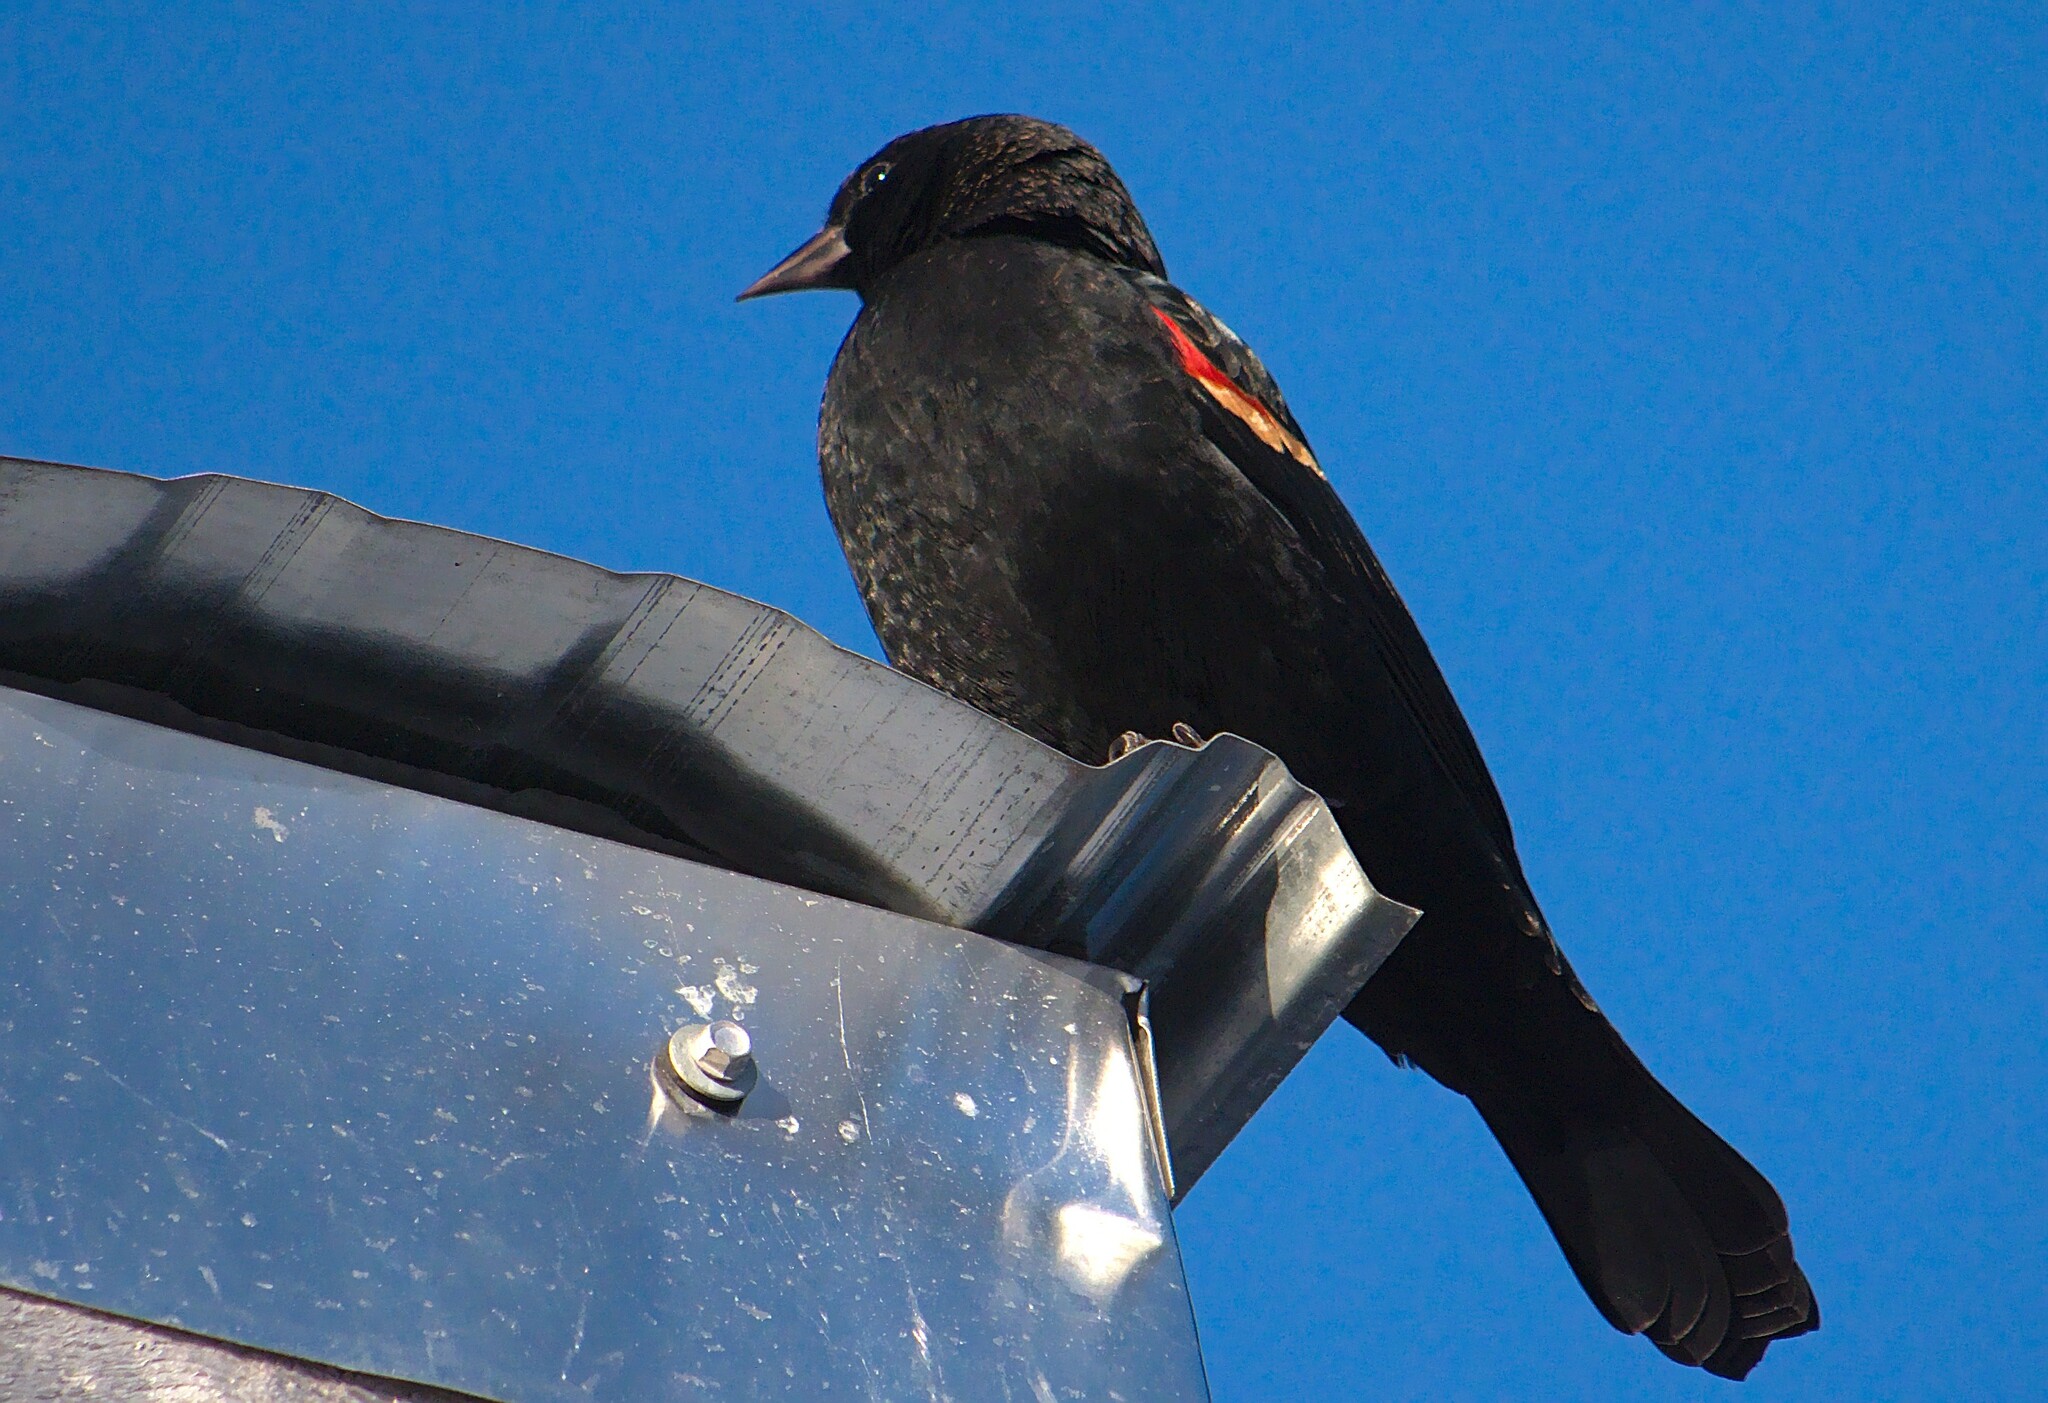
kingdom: Animalia
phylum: Chordata
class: Aves
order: Passeriformes
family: Icteridae
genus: Agelaius
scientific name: Agelaius phoeniceus
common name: Red-winged blackbird
